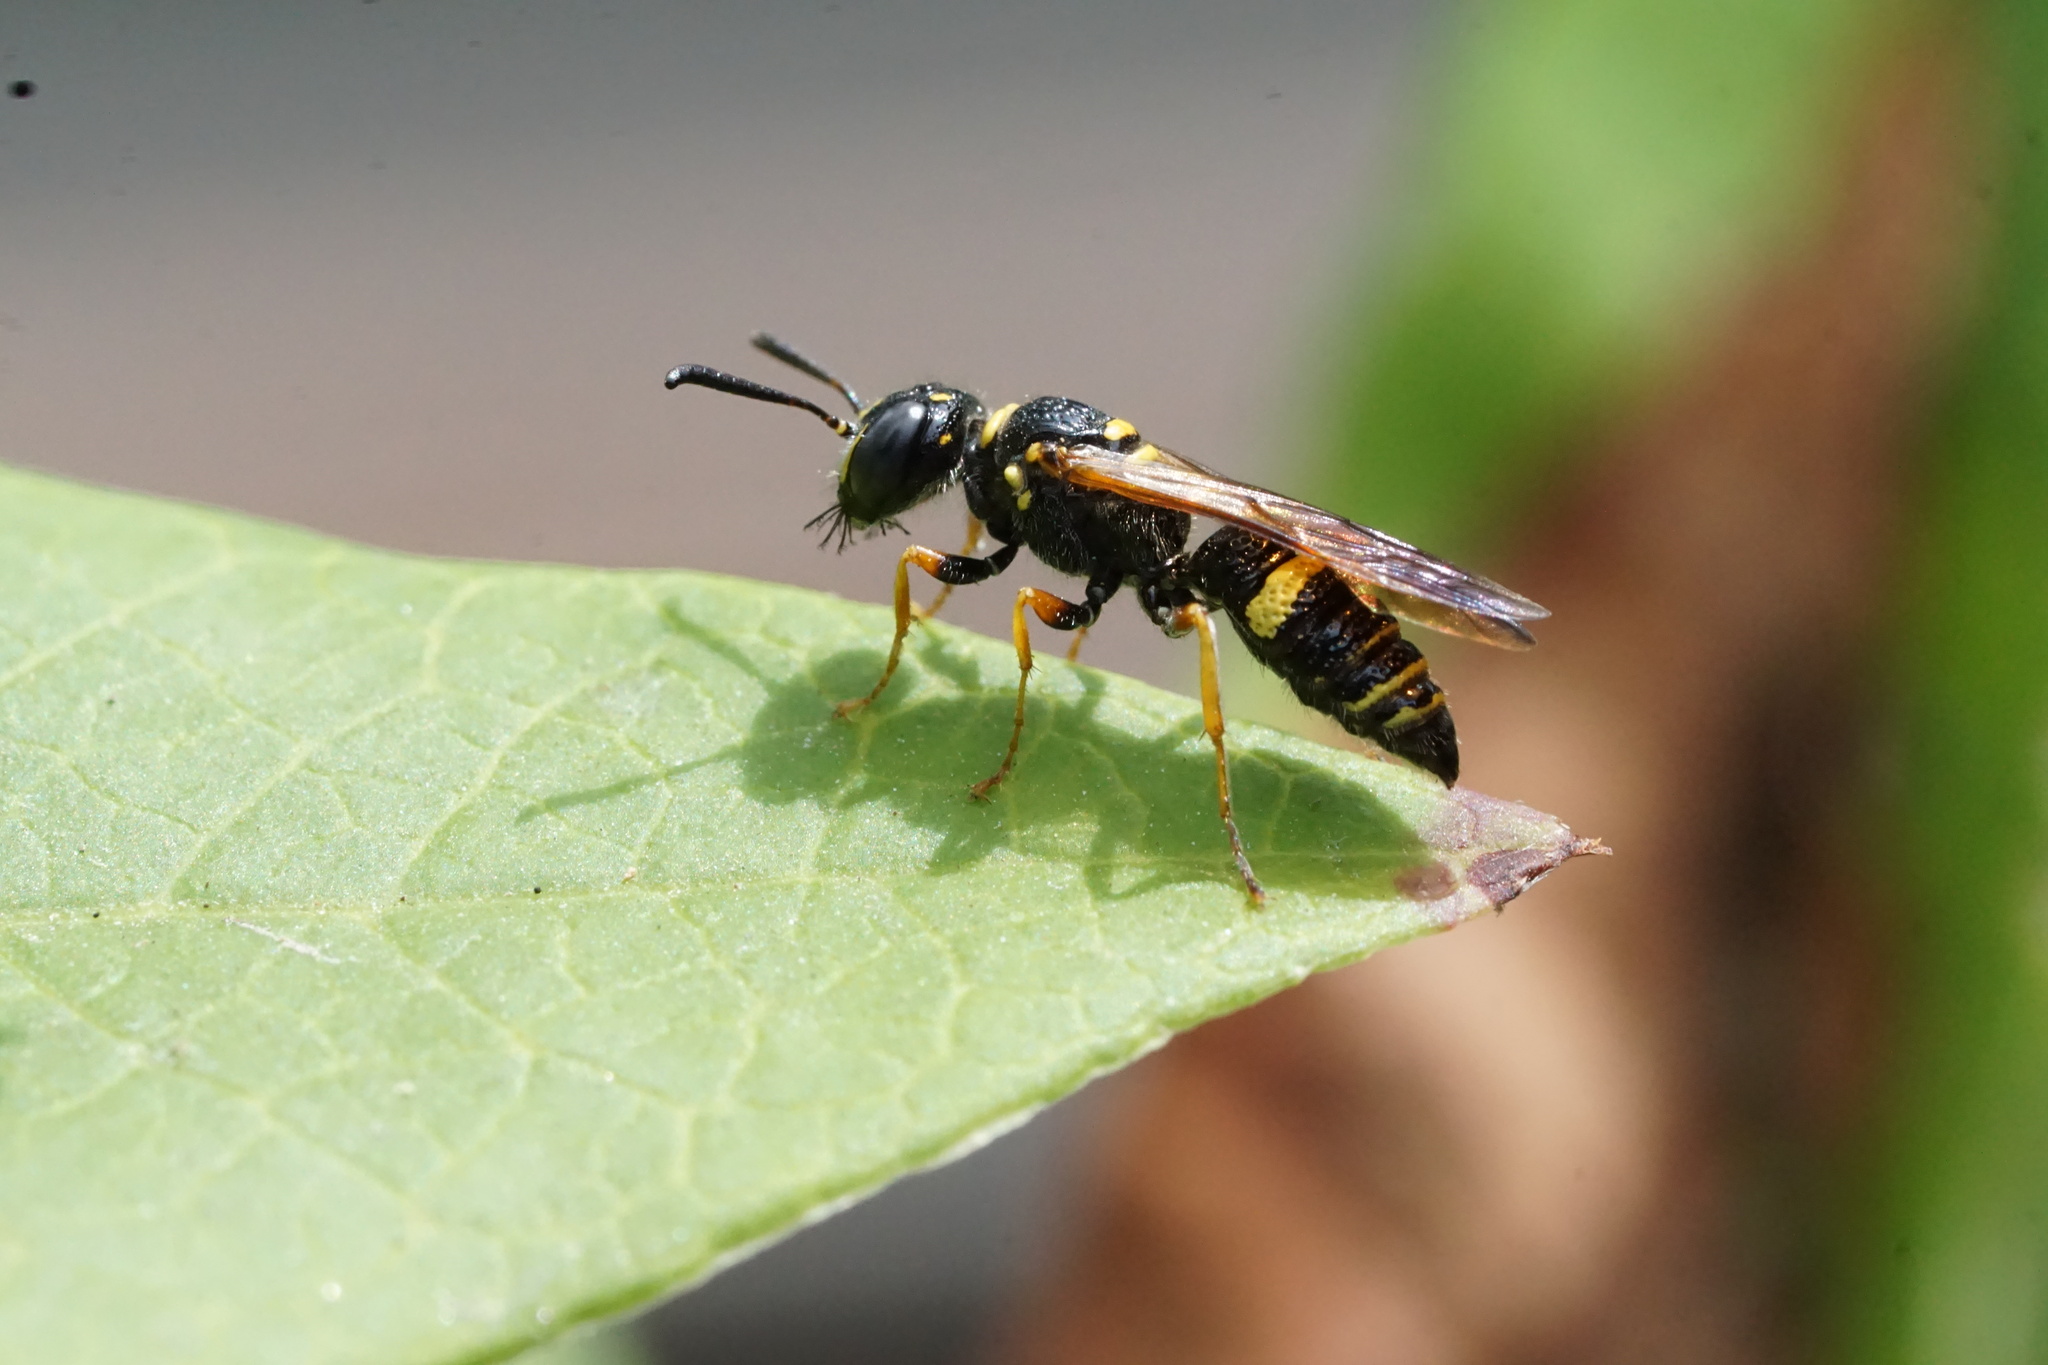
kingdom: Animalia
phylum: Arthropoda
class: Insecta
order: Hymenoptera
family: Crabronidae
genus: Philanthus
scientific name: Philanthus gibbosus
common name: Humped beewolf
